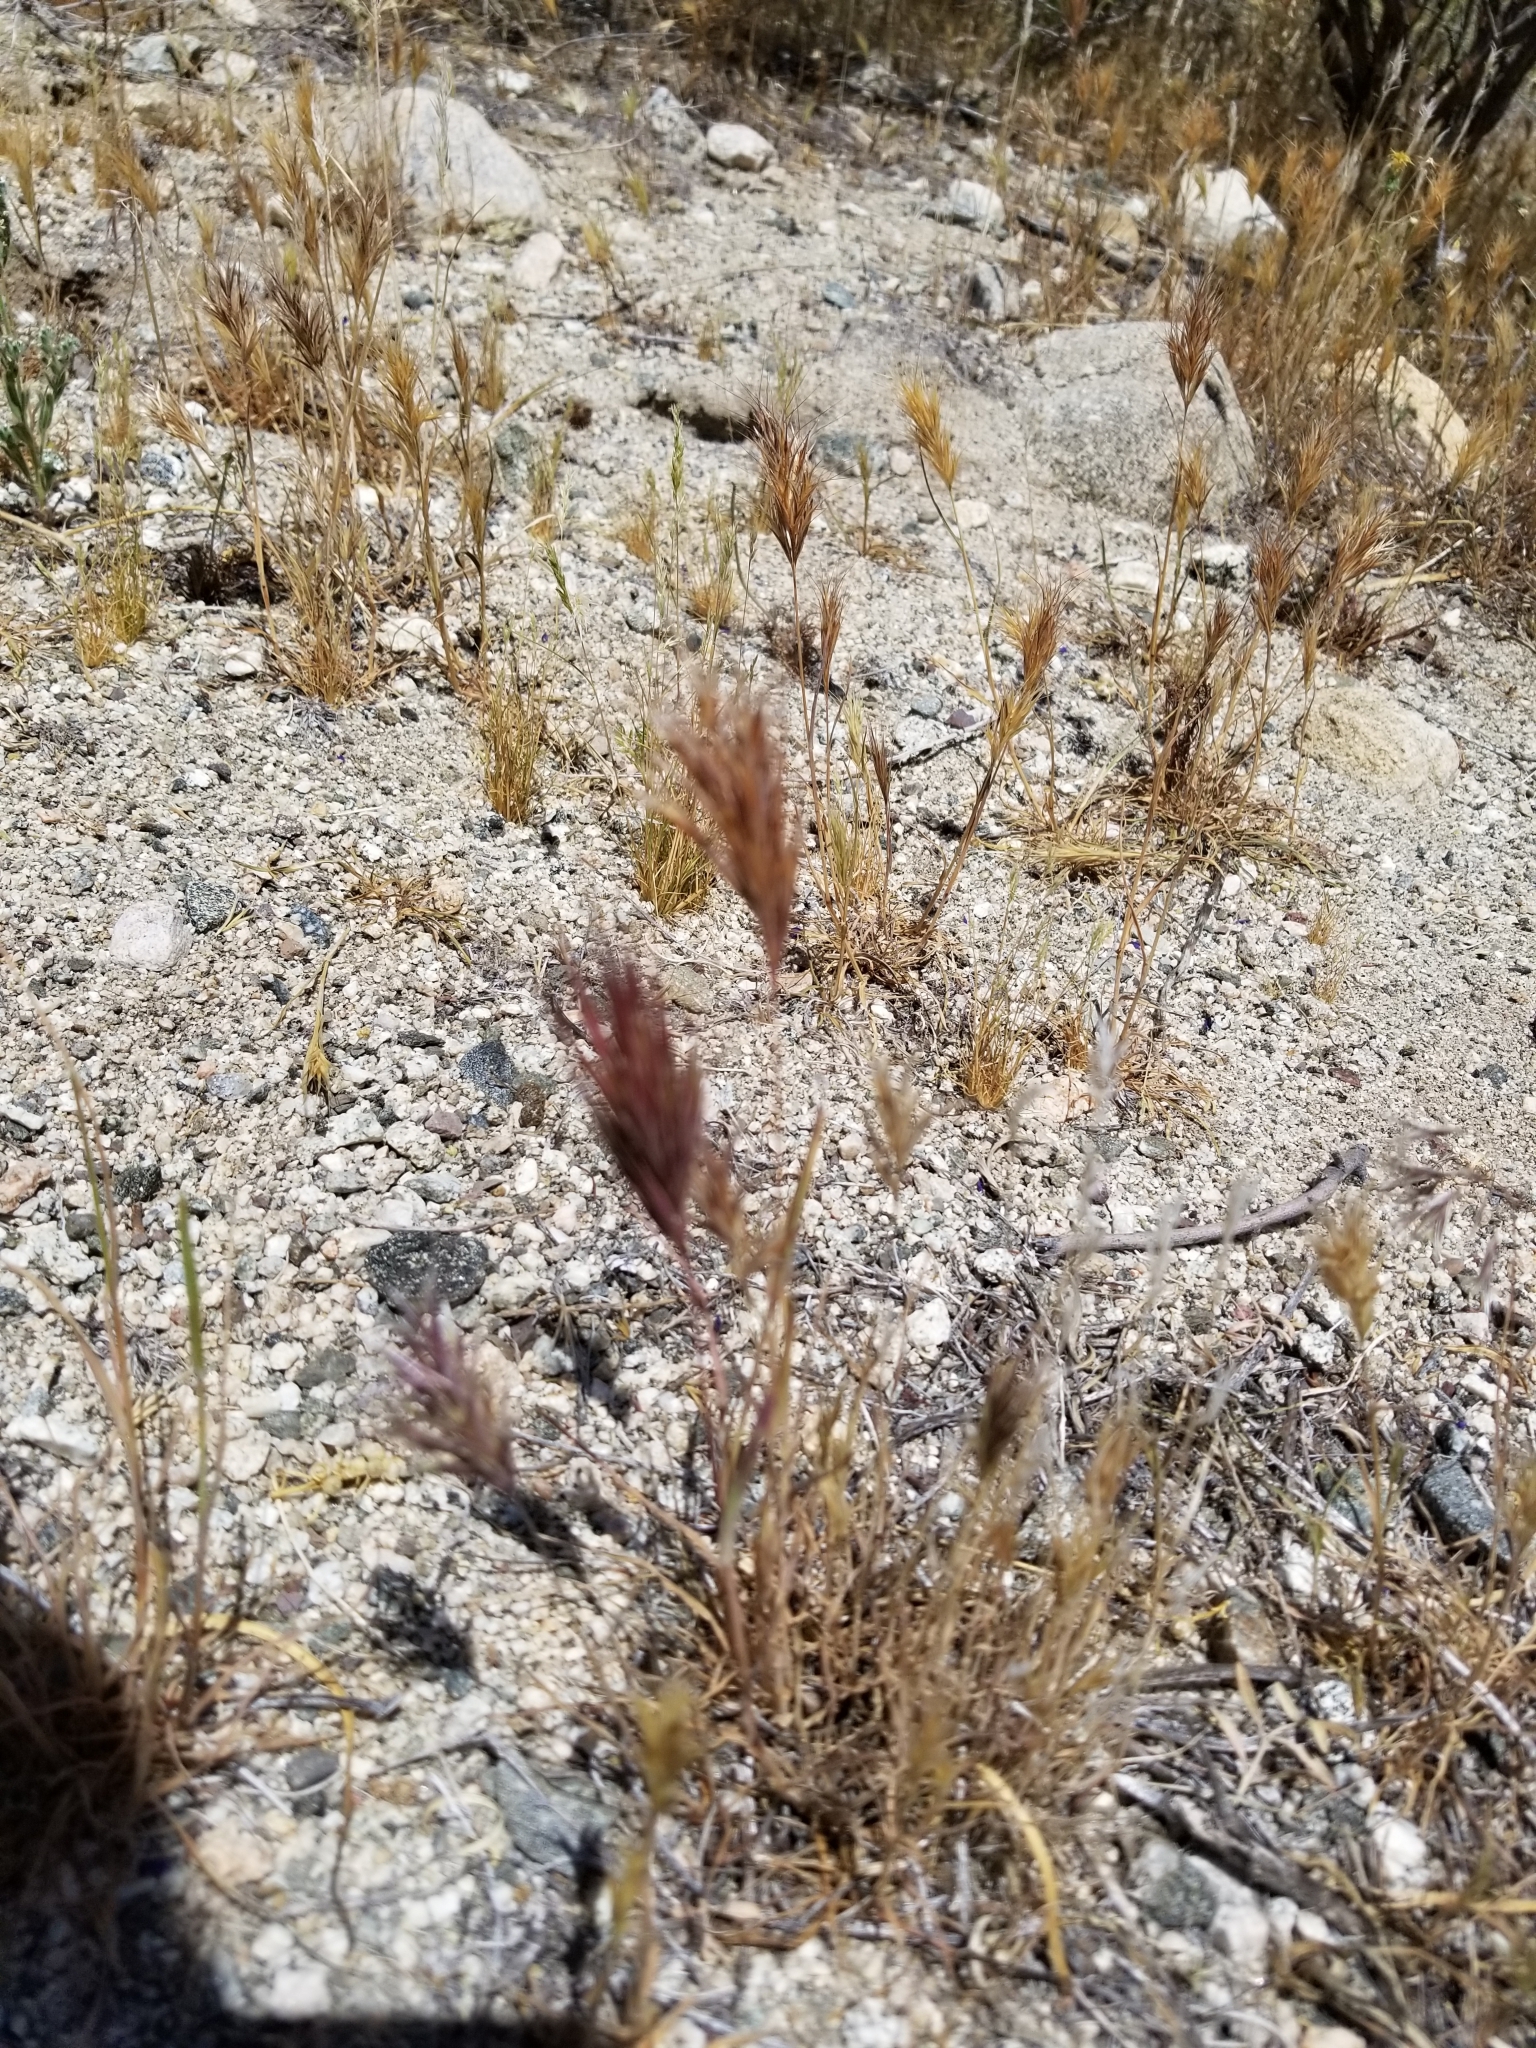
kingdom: Plantae
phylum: Tracheophyta
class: Liliopsida
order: Poales
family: Poaceae
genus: Bromus
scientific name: Bromus rubens
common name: Red brome
